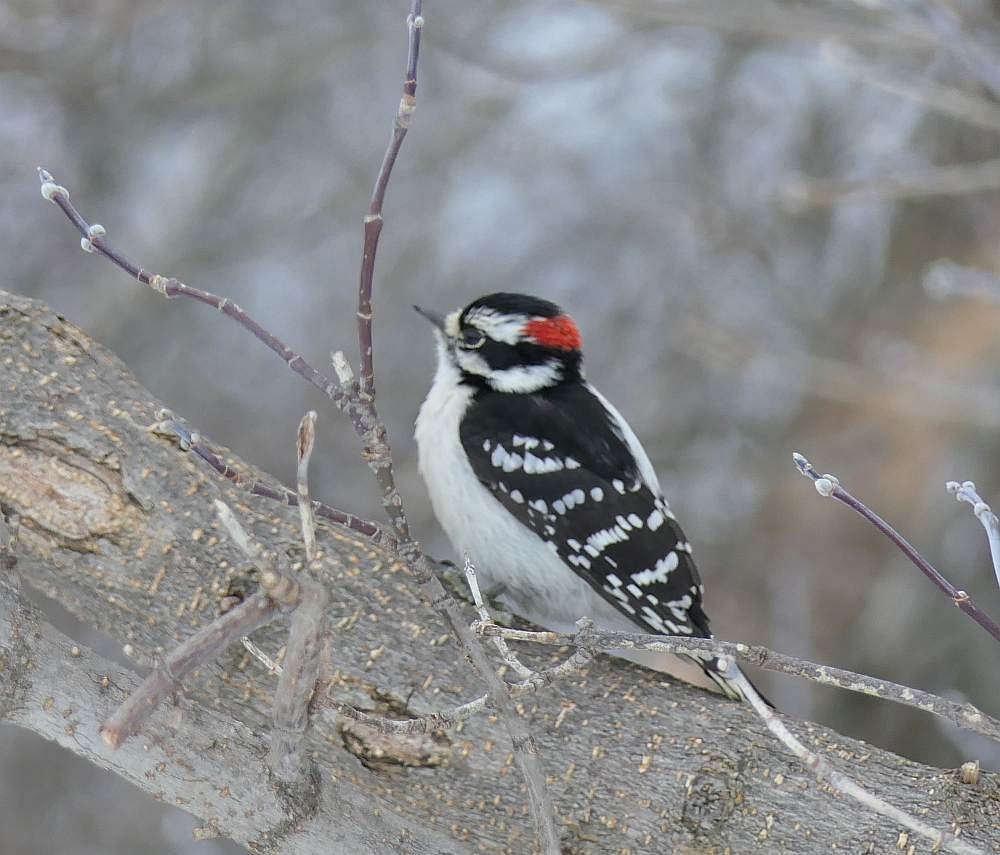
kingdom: Animalia
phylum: Chordata
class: Aves
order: Piciformes
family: Picidae
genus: Dryobates
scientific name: Dryobates pubescens
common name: Downy woodpecker
